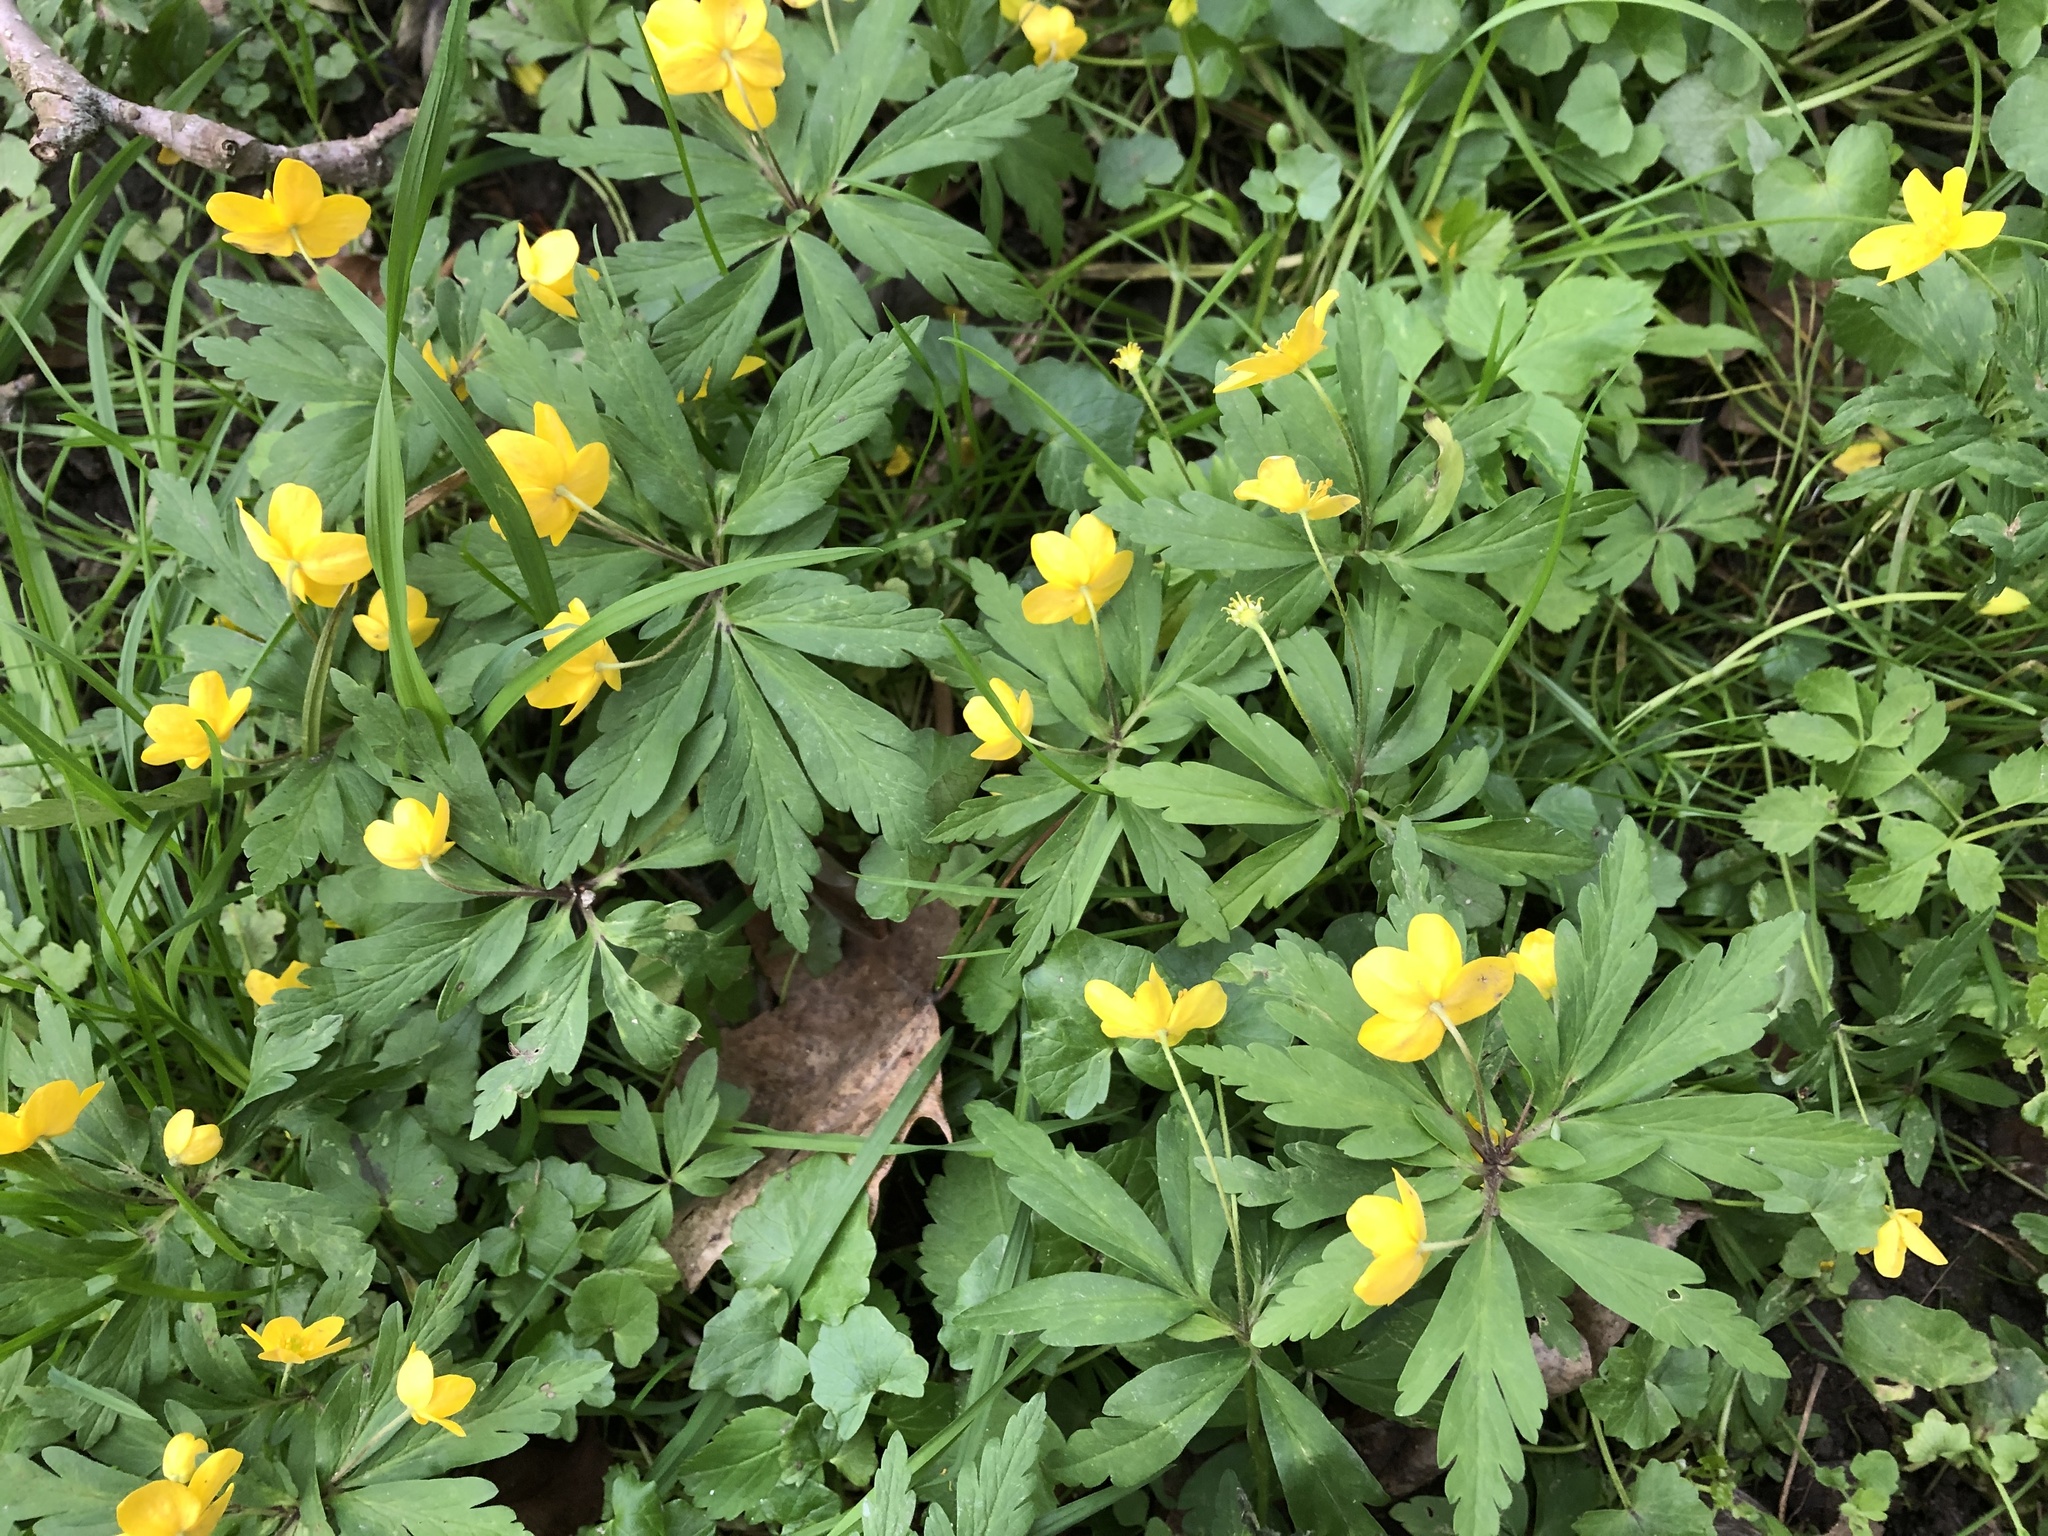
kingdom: Plantae
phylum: Tracheophyta
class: Magnoliopsida
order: Ranunculales
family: Ranunculaceae
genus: Anemone
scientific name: Anemone ranunculoides
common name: Yellow anemone
